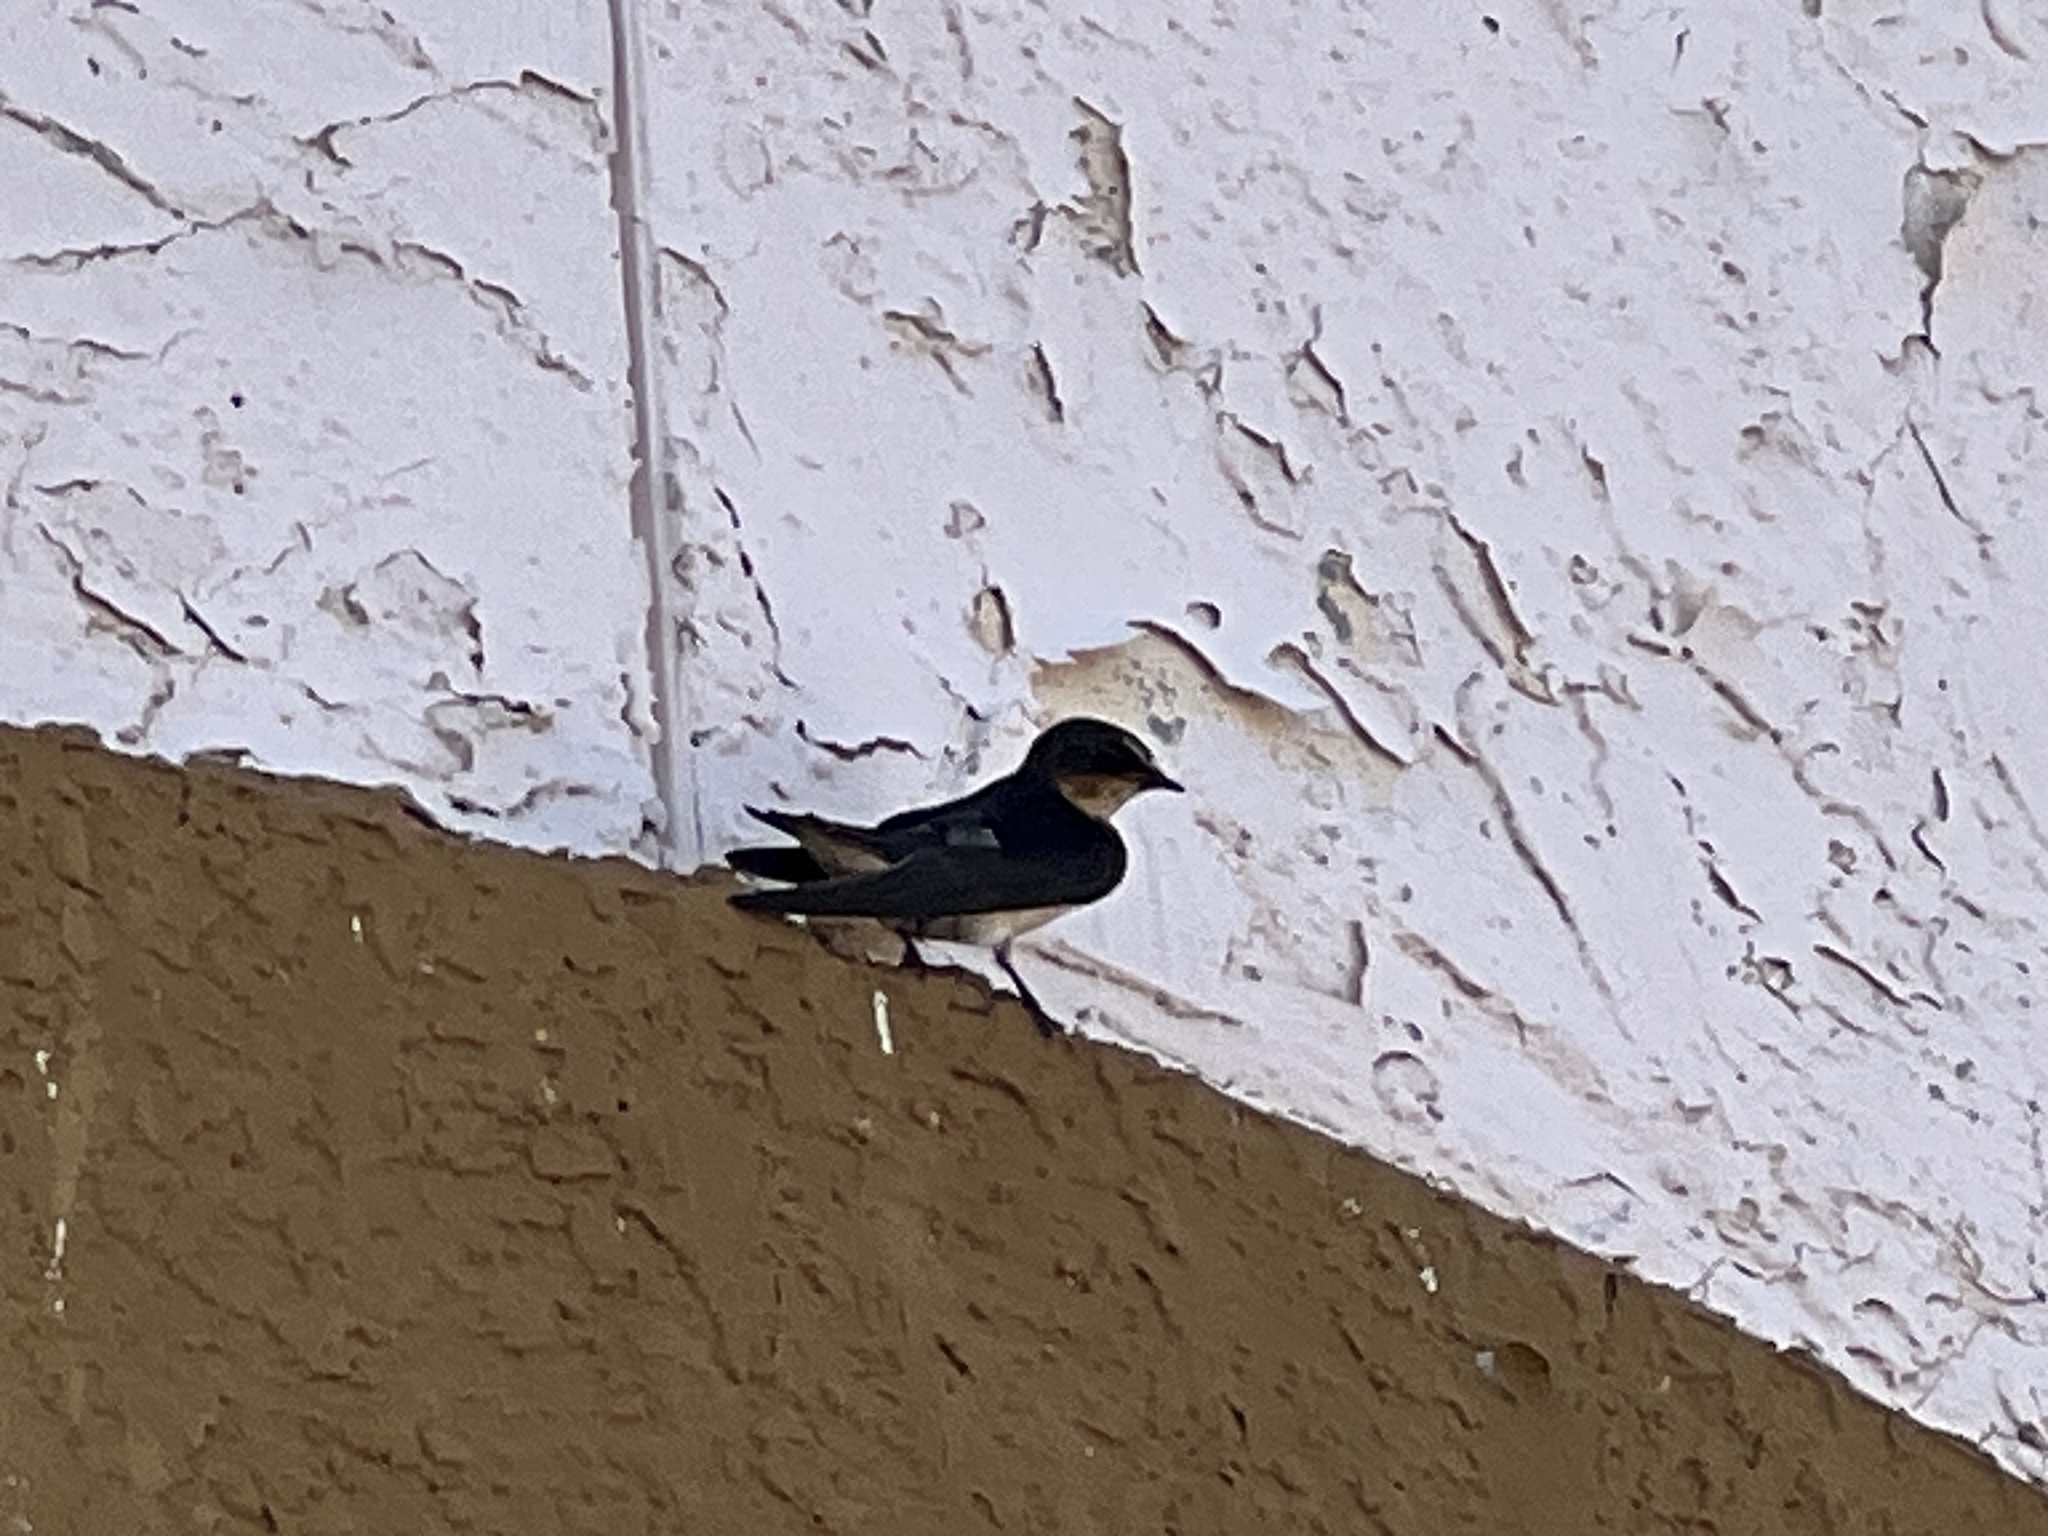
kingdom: Animalia
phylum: Chordata
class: Aves
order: Passeriformes
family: Hirundinidae
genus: Hirundo
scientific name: Hirundo rustica
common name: Barn swallow
